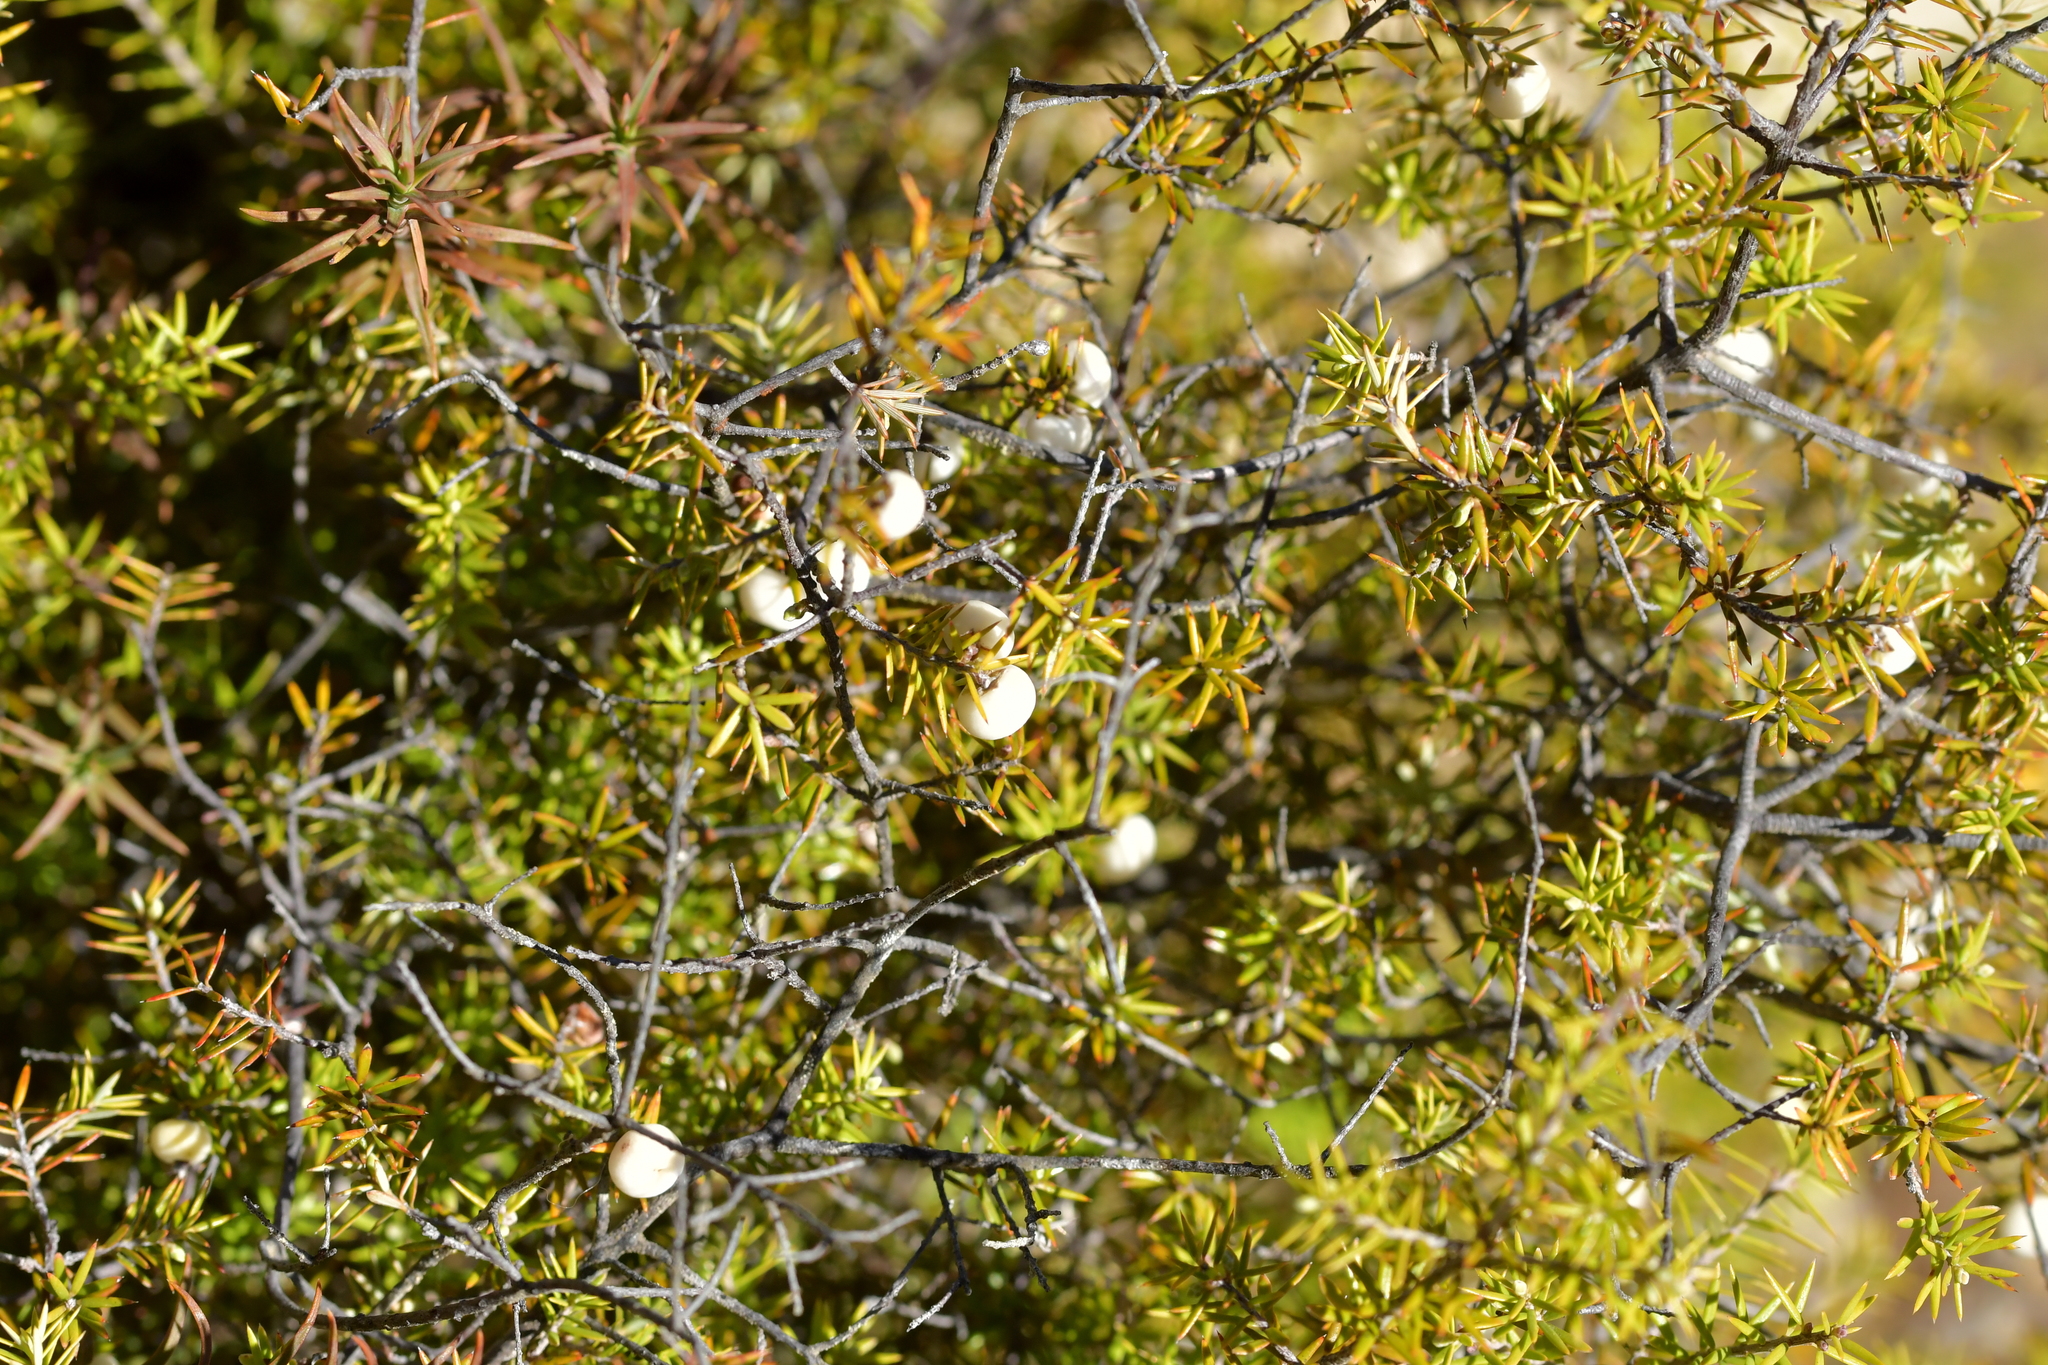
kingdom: Plantae
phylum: Tracheophyta
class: Magnoliopsida
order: Ericales
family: Ericaceae
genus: Leptecophylla
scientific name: Leptecophylla juniperina
